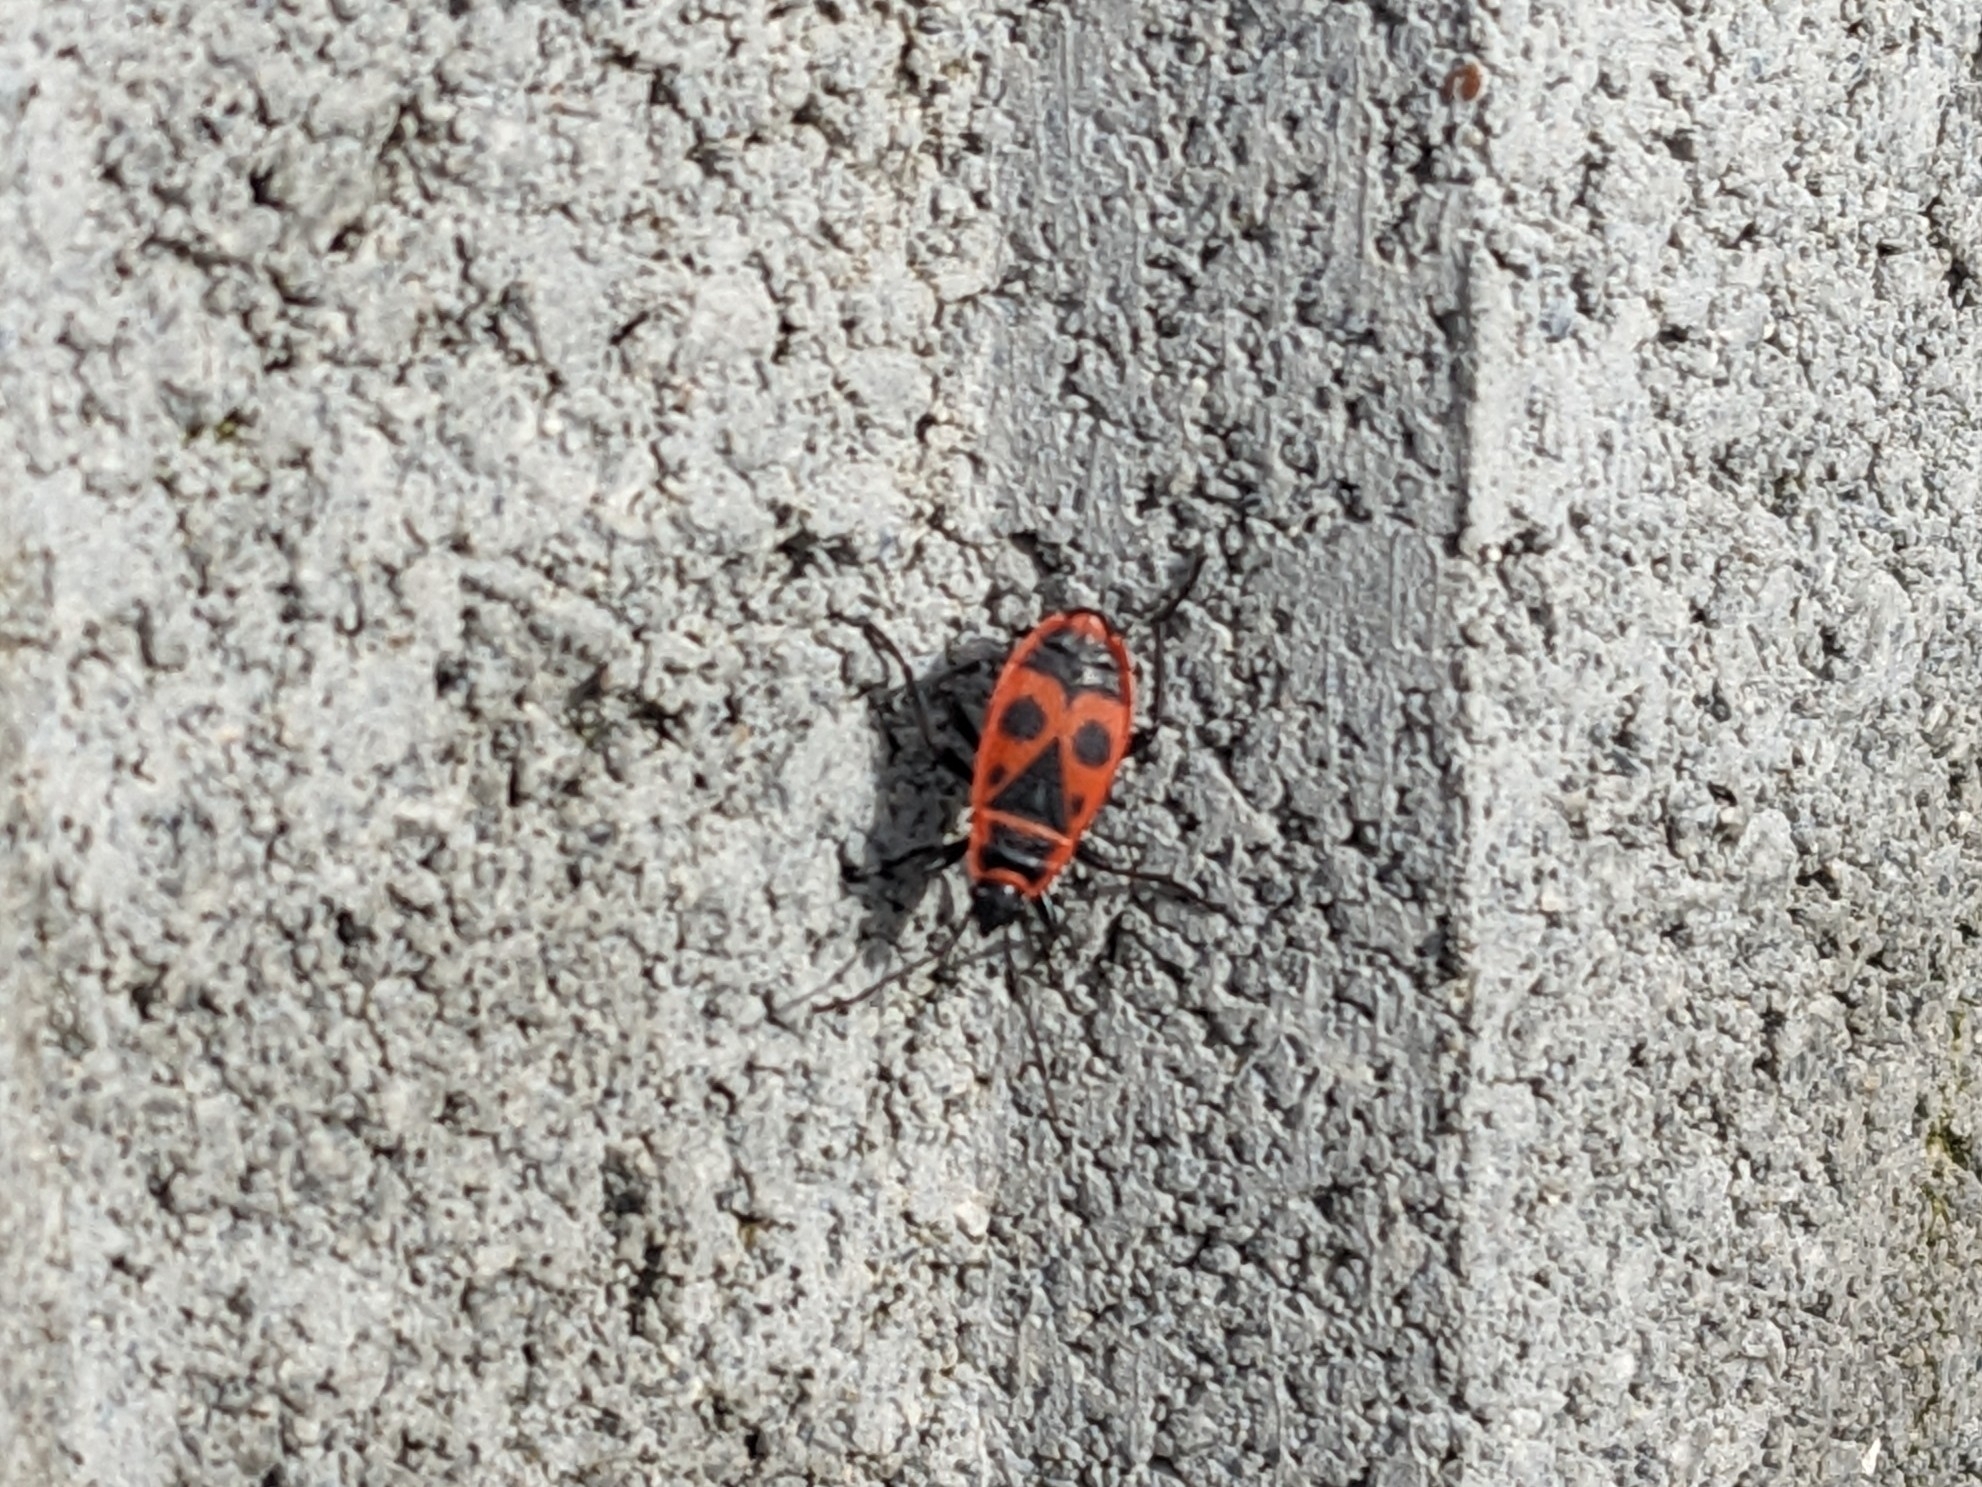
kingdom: Animalia
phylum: Arthropoda
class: Insecta
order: Hemiptera
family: Pyrrhocoridae
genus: Pyrrhocoris
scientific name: Pyrrhocoris apterus
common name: Firebug
